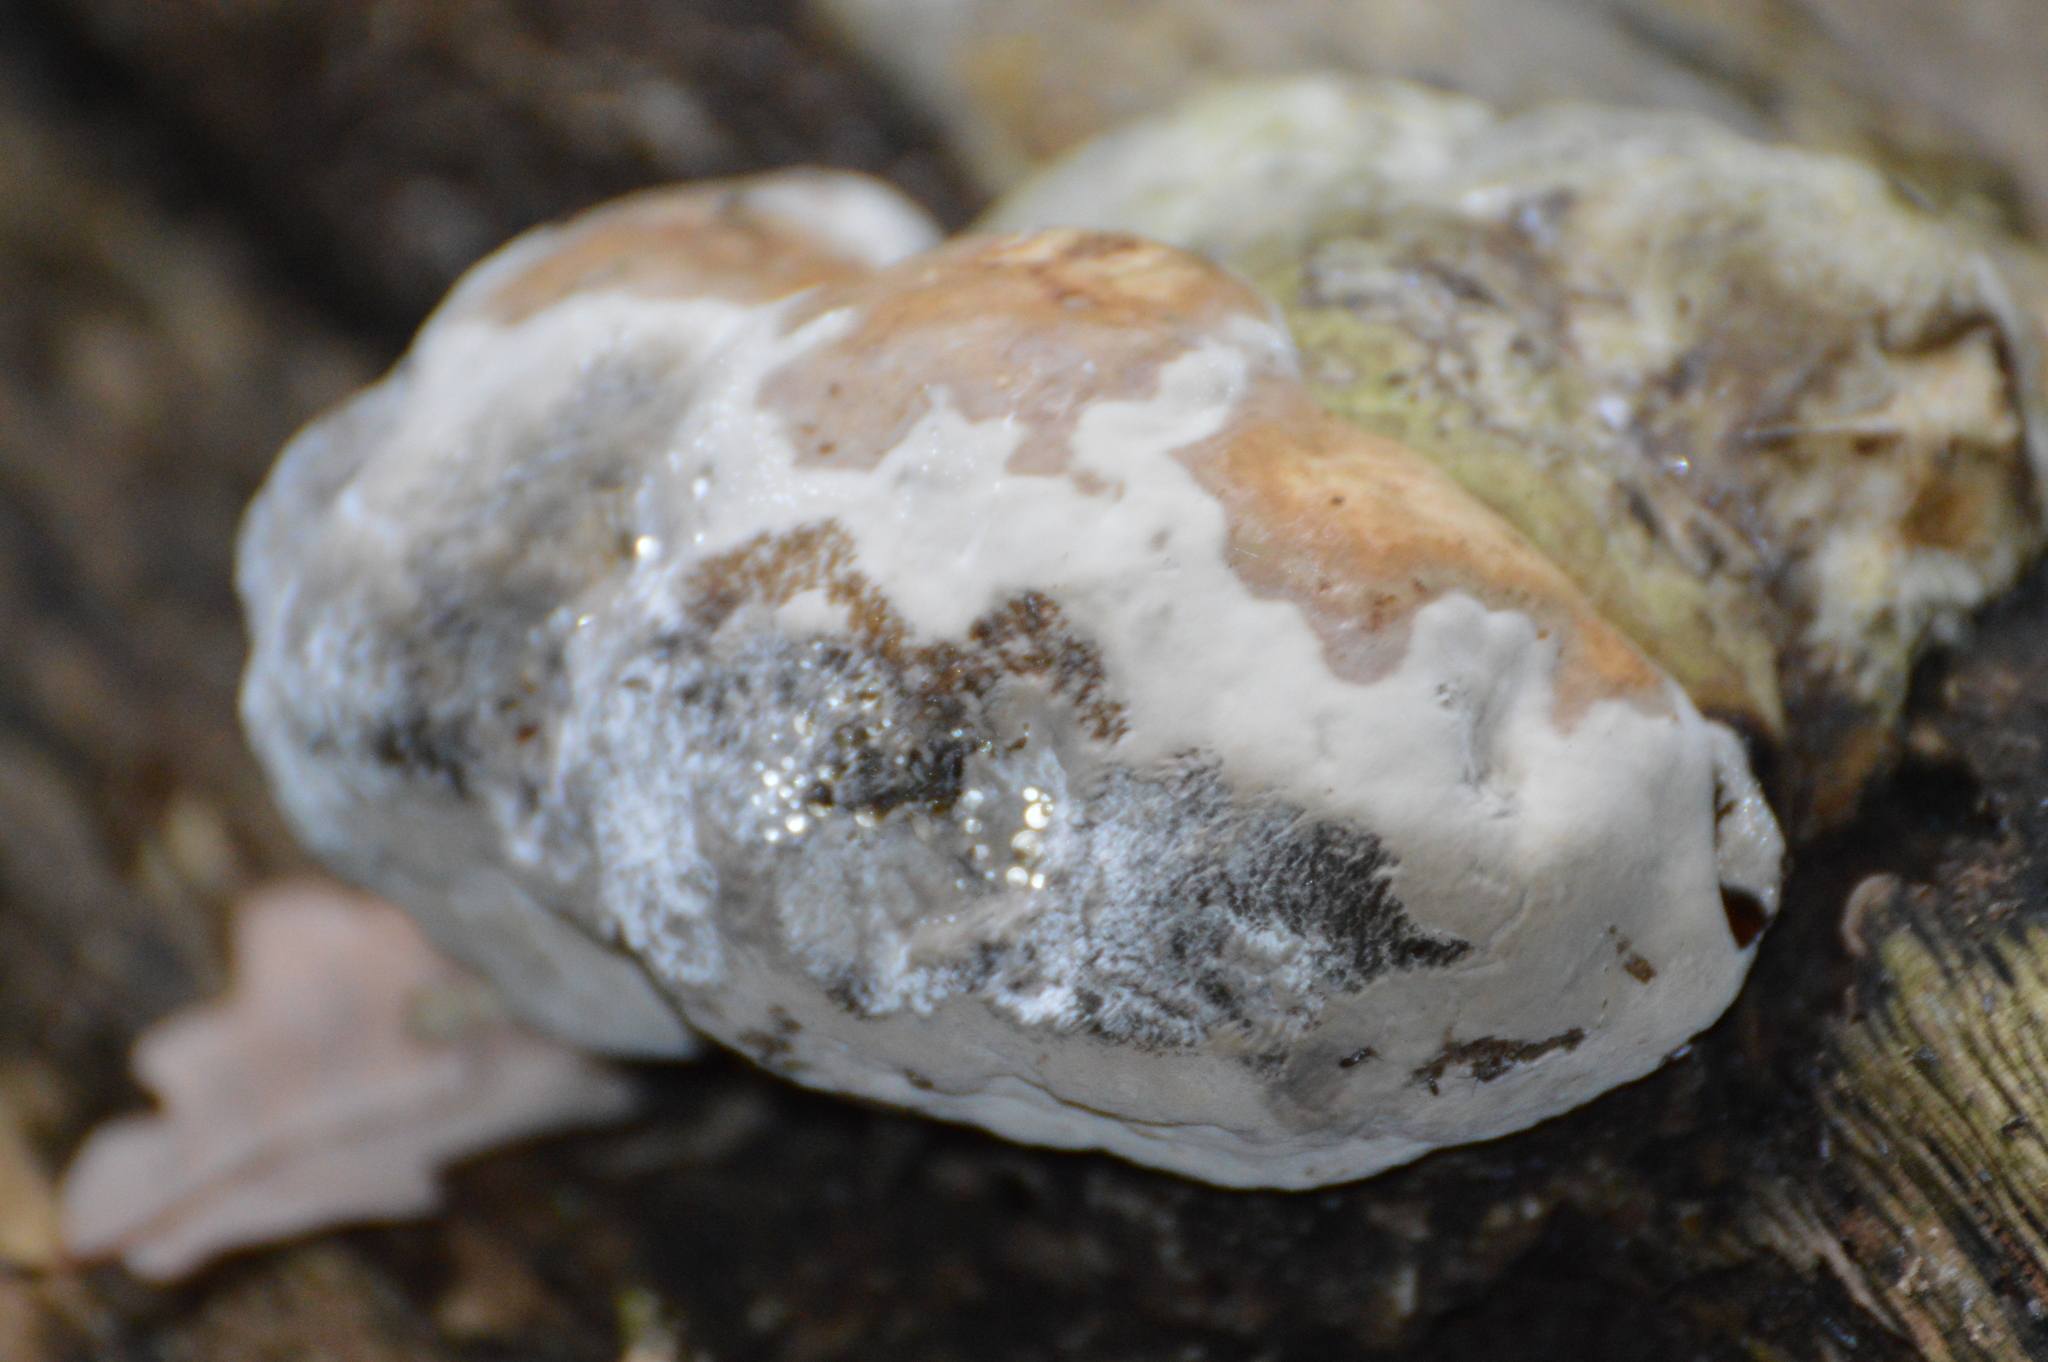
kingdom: Fungi
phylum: Basidiomycota
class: Agaricomycetes
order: Polyporales
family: Polyporaceae
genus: Fomes
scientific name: Fomes fomentarius
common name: Hoof fungus
